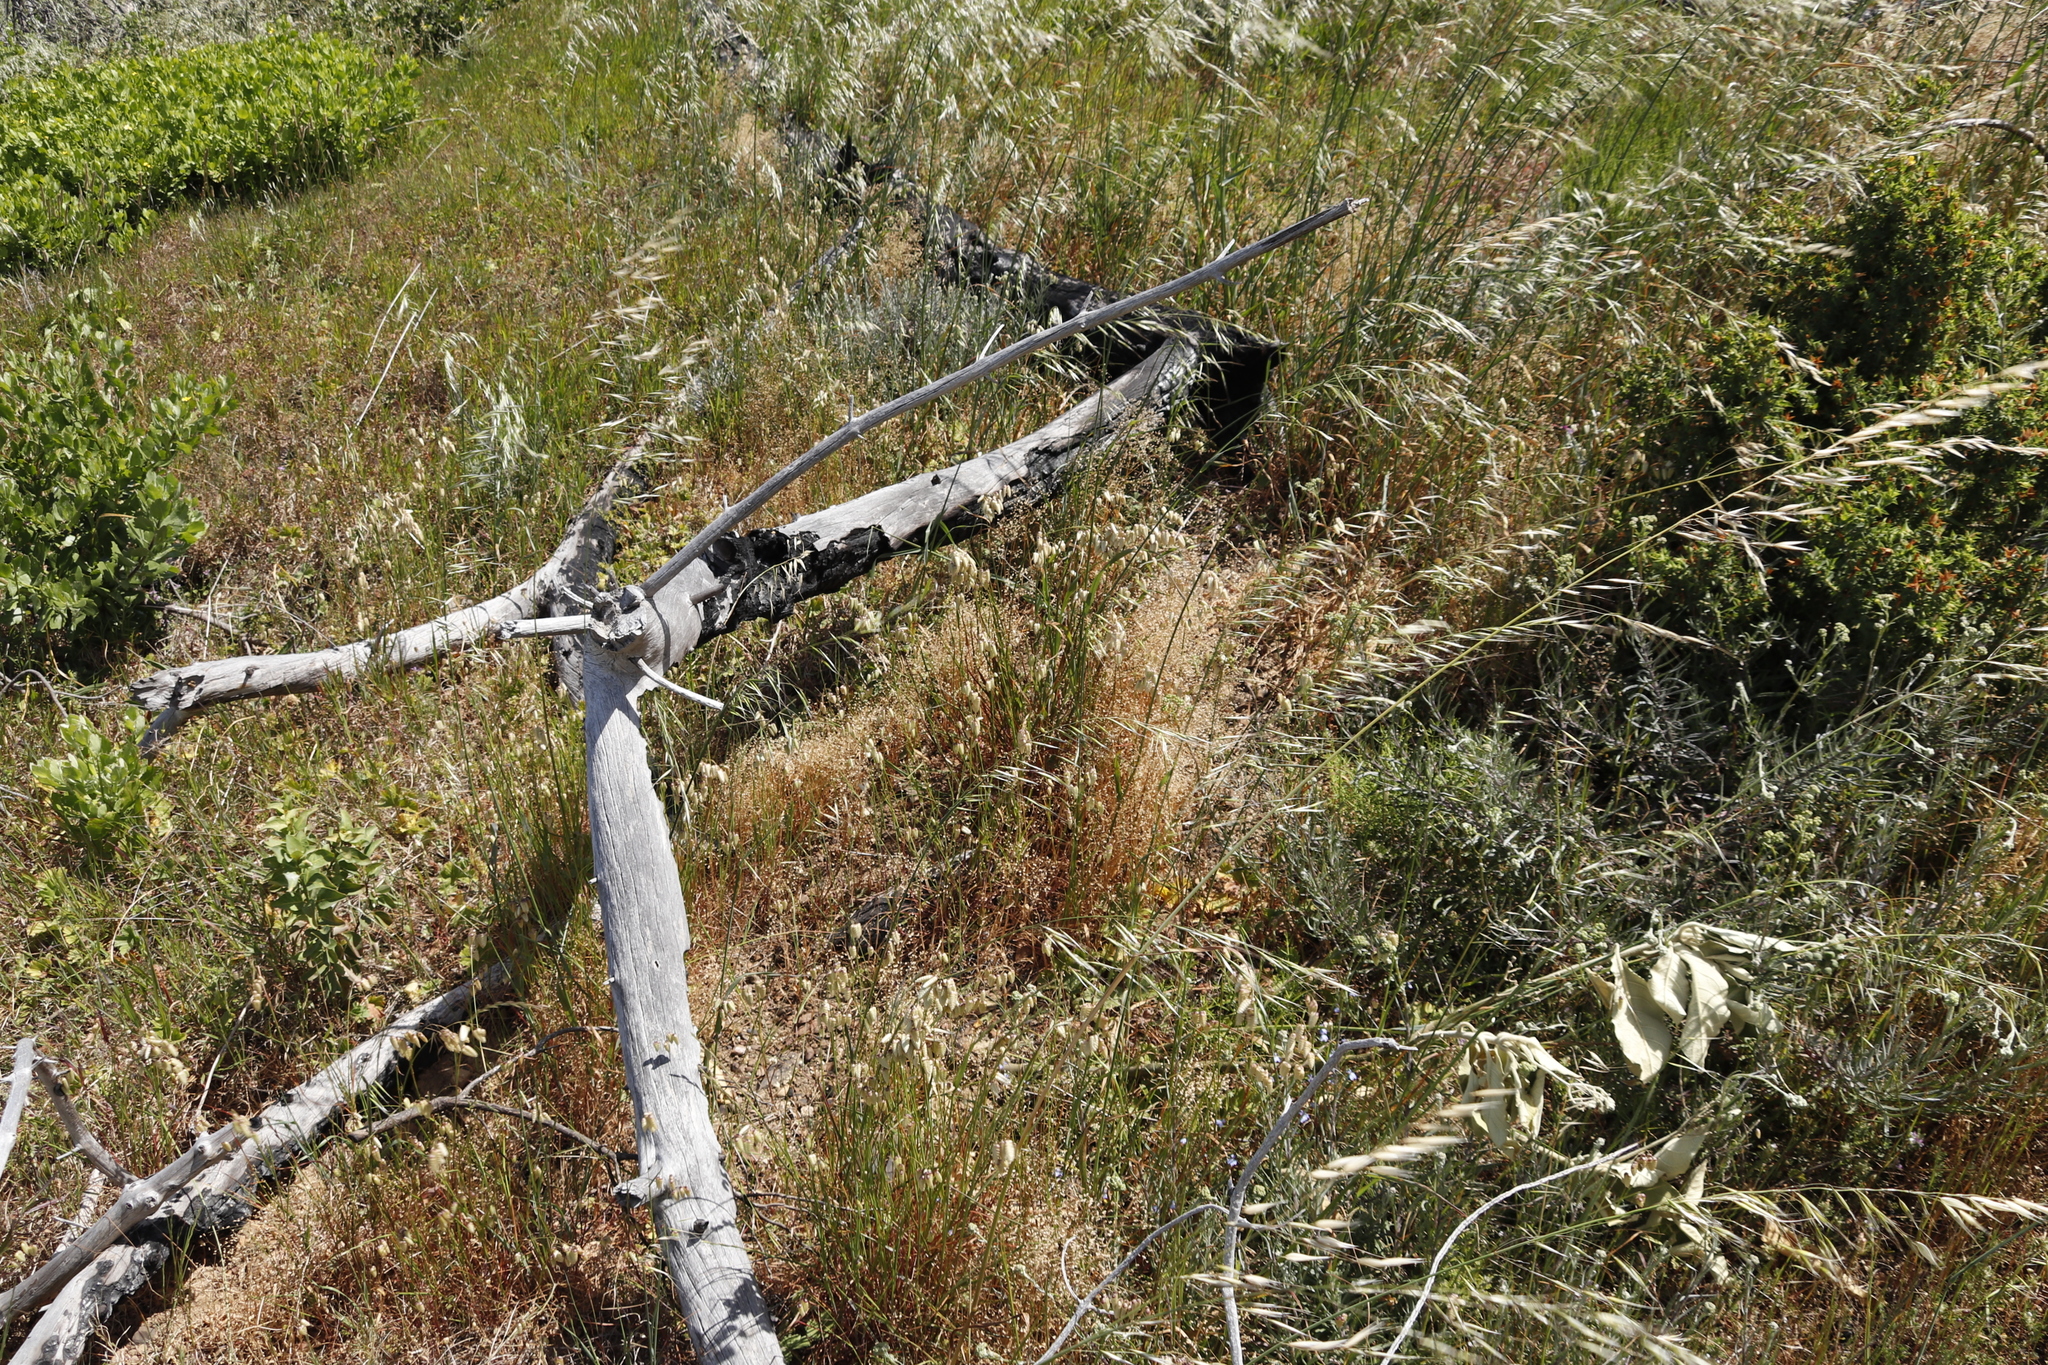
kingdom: Plantae
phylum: Tracheophyta
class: Liliopsida
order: Poales
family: Poaceae
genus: Avena
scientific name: Avena fatua
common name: Wild oat
